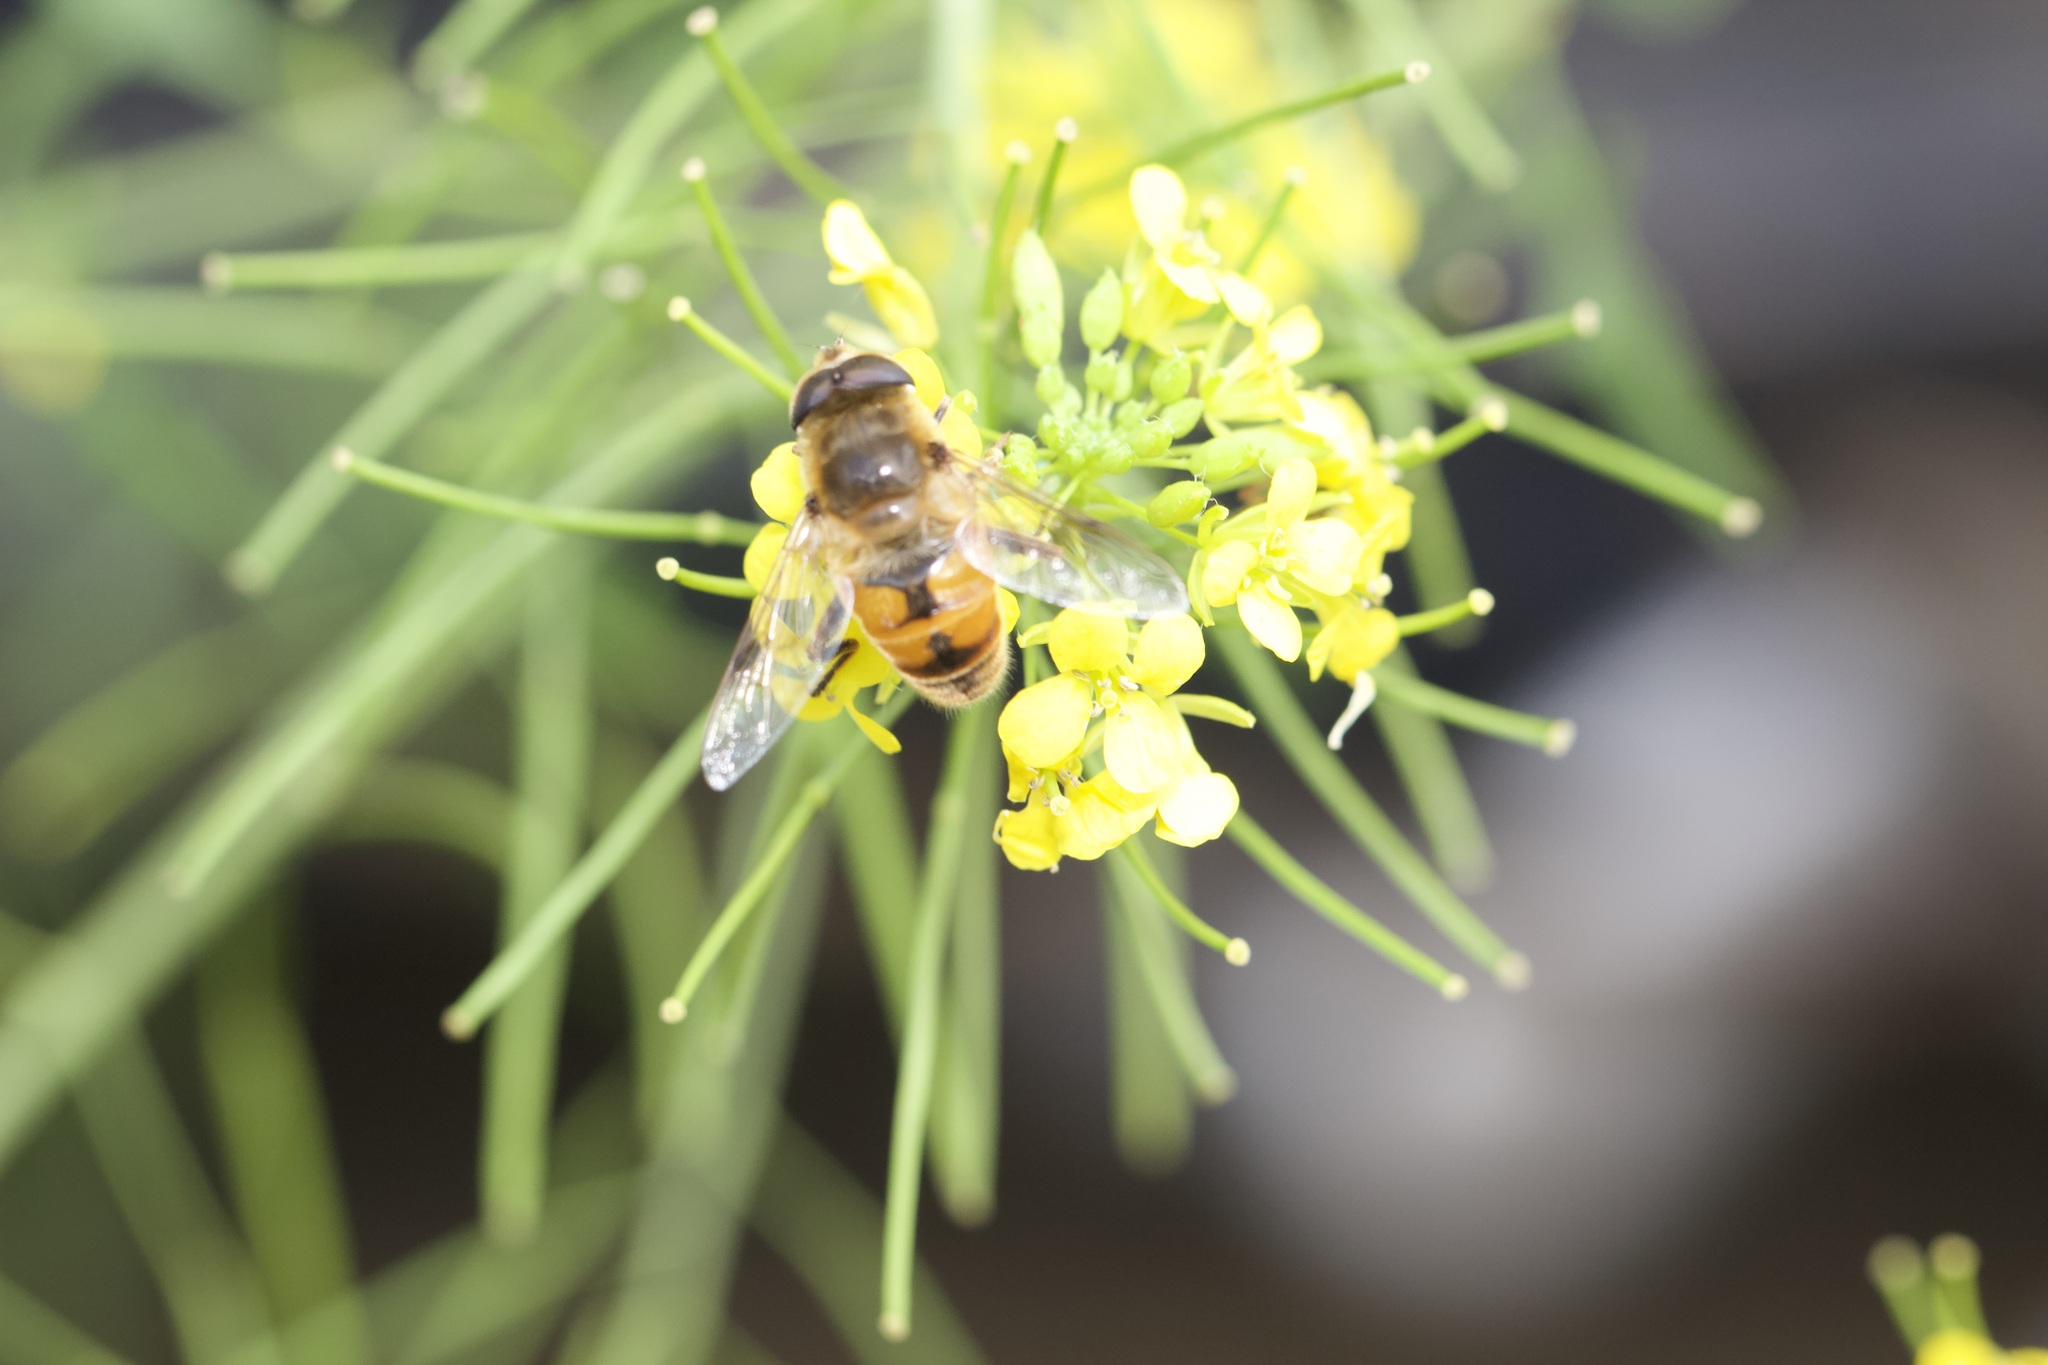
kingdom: Animalia
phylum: Arthropoda
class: Insecta
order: Diptera
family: Syrphidae
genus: Eristalis
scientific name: Eristalis tenax
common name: Drone fly
